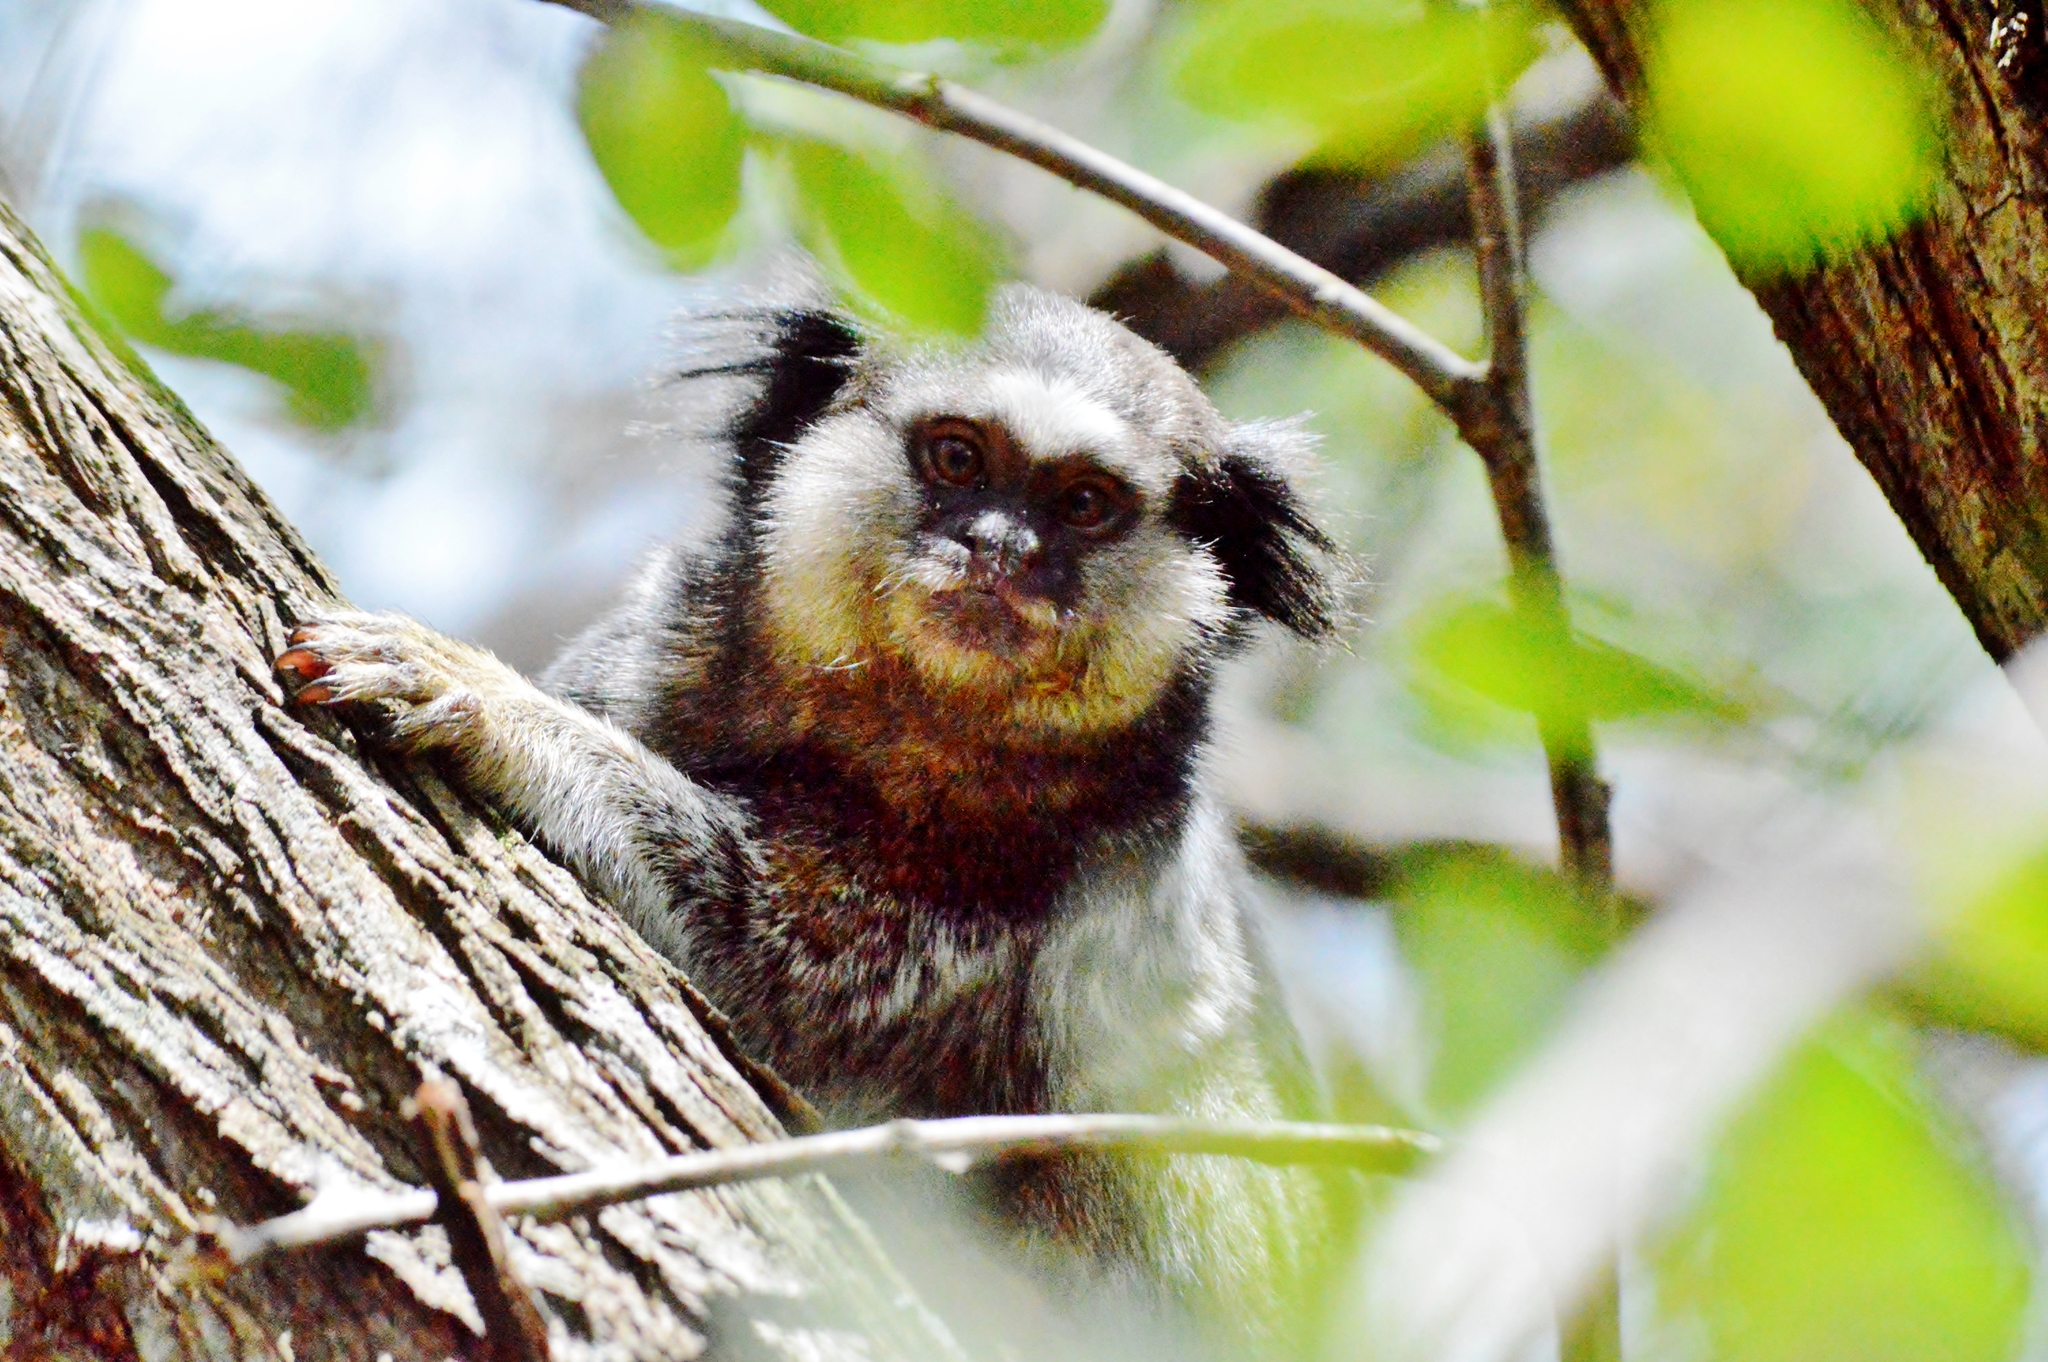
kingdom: Animalia
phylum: Chordata
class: Mammalia
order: Primates
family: Callitrichidae
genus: Callithrix
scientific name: Callithrix penicillata
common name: Black-tufted marmoset
